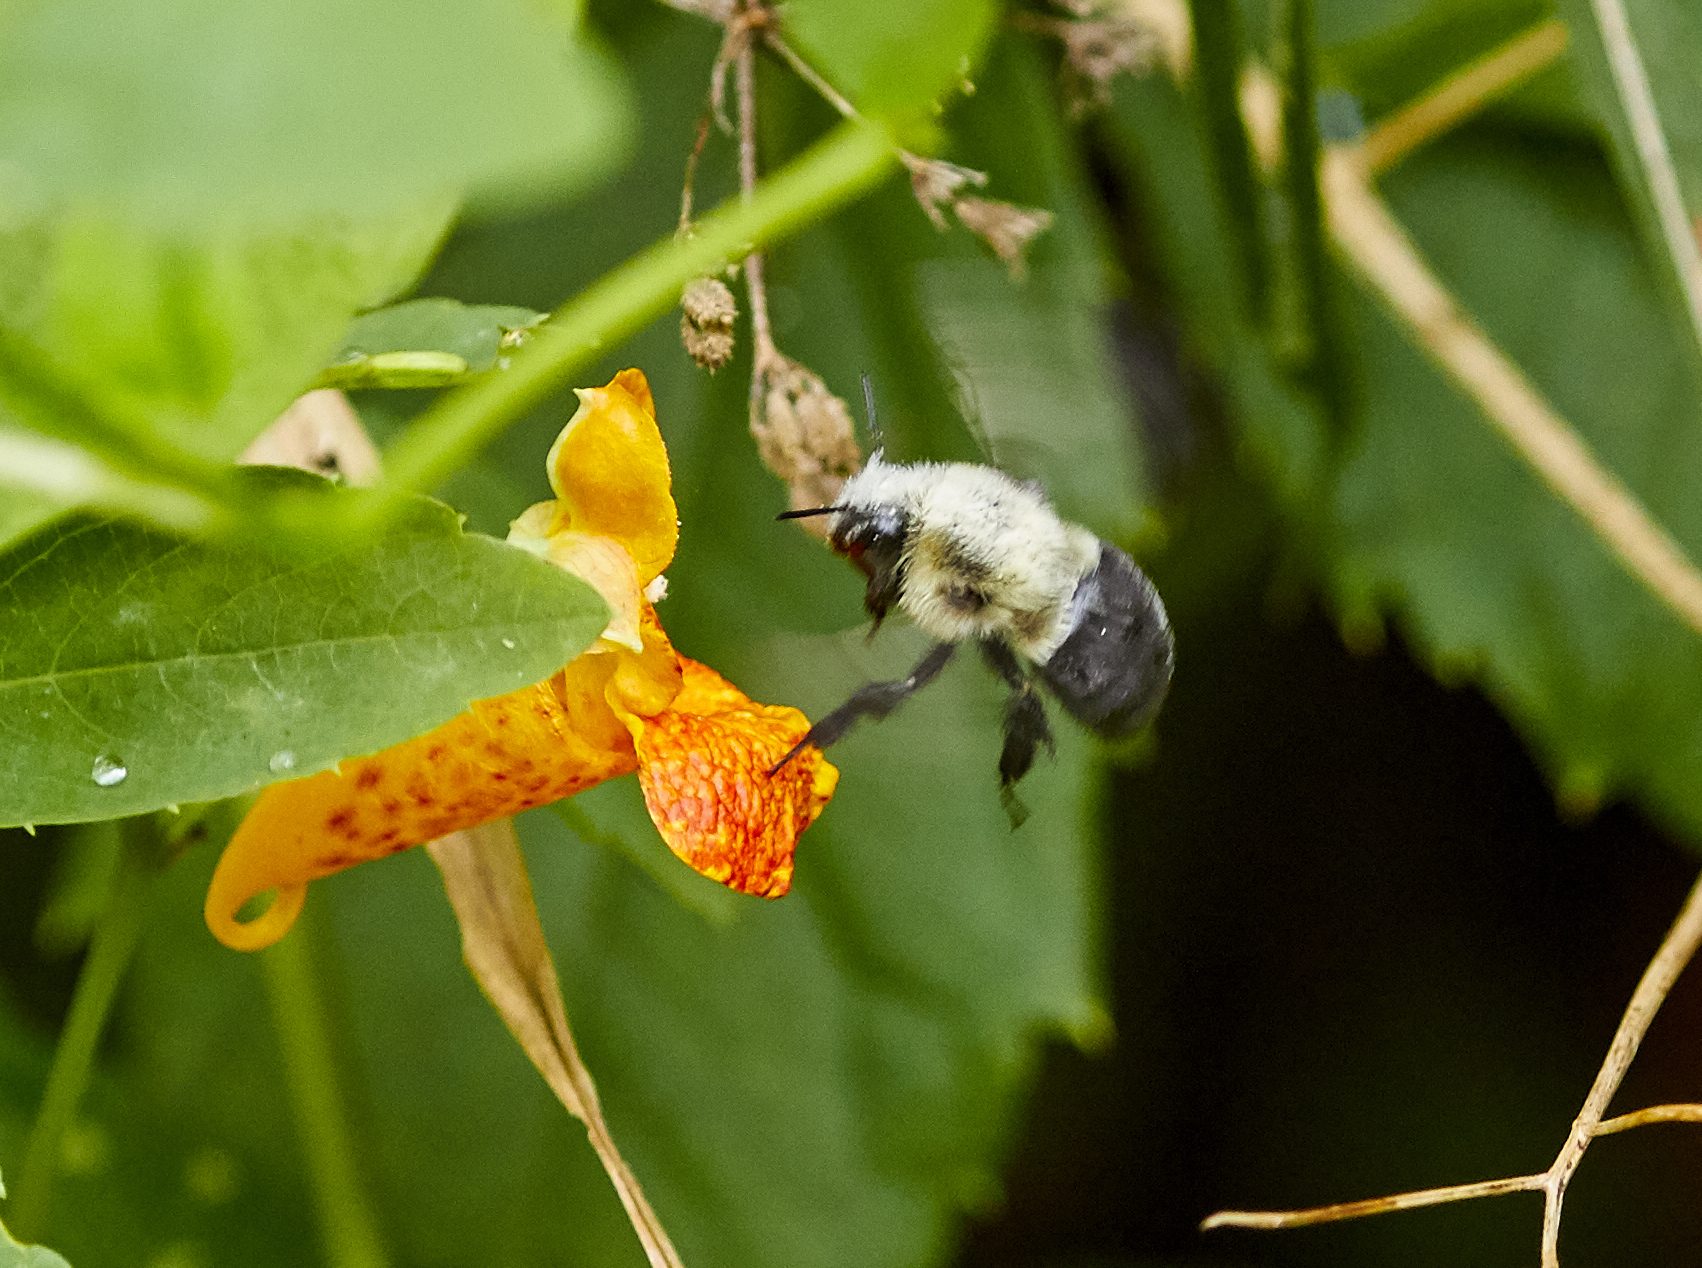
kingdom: Animalia
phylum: Arthropoda
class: Insecta
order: Hymenoptera
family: Apidae
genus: Bombus
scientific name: Bombus impatiens
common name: Common eastern bumble bee
